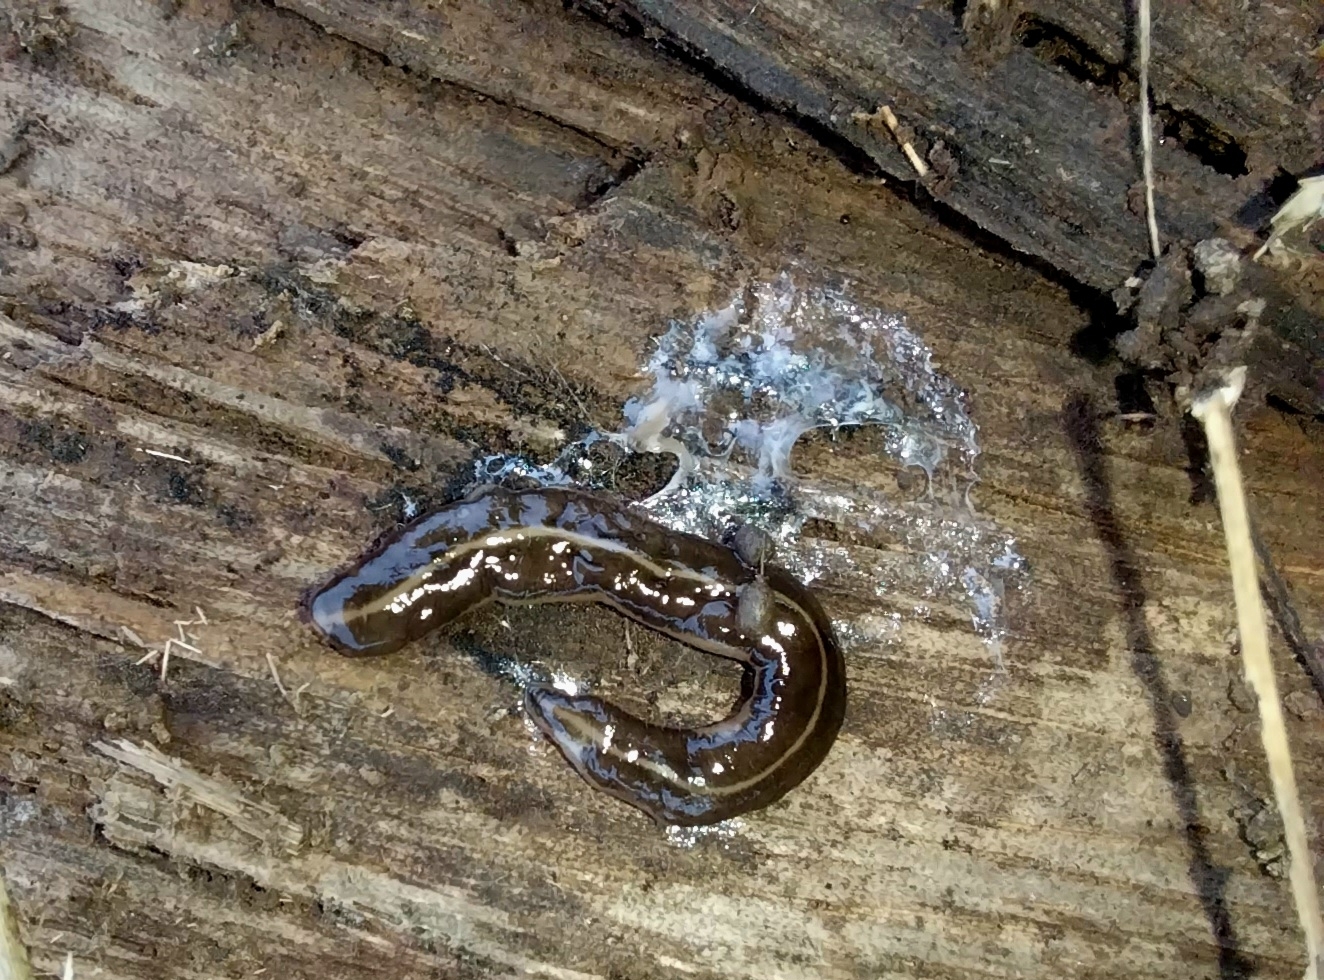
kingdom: Animalia
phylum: Platyhelminthes
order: Tricladida
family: Geoplanidae
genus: Platydemus
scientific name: Platydemus manokwari
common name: New guinea flatworm
